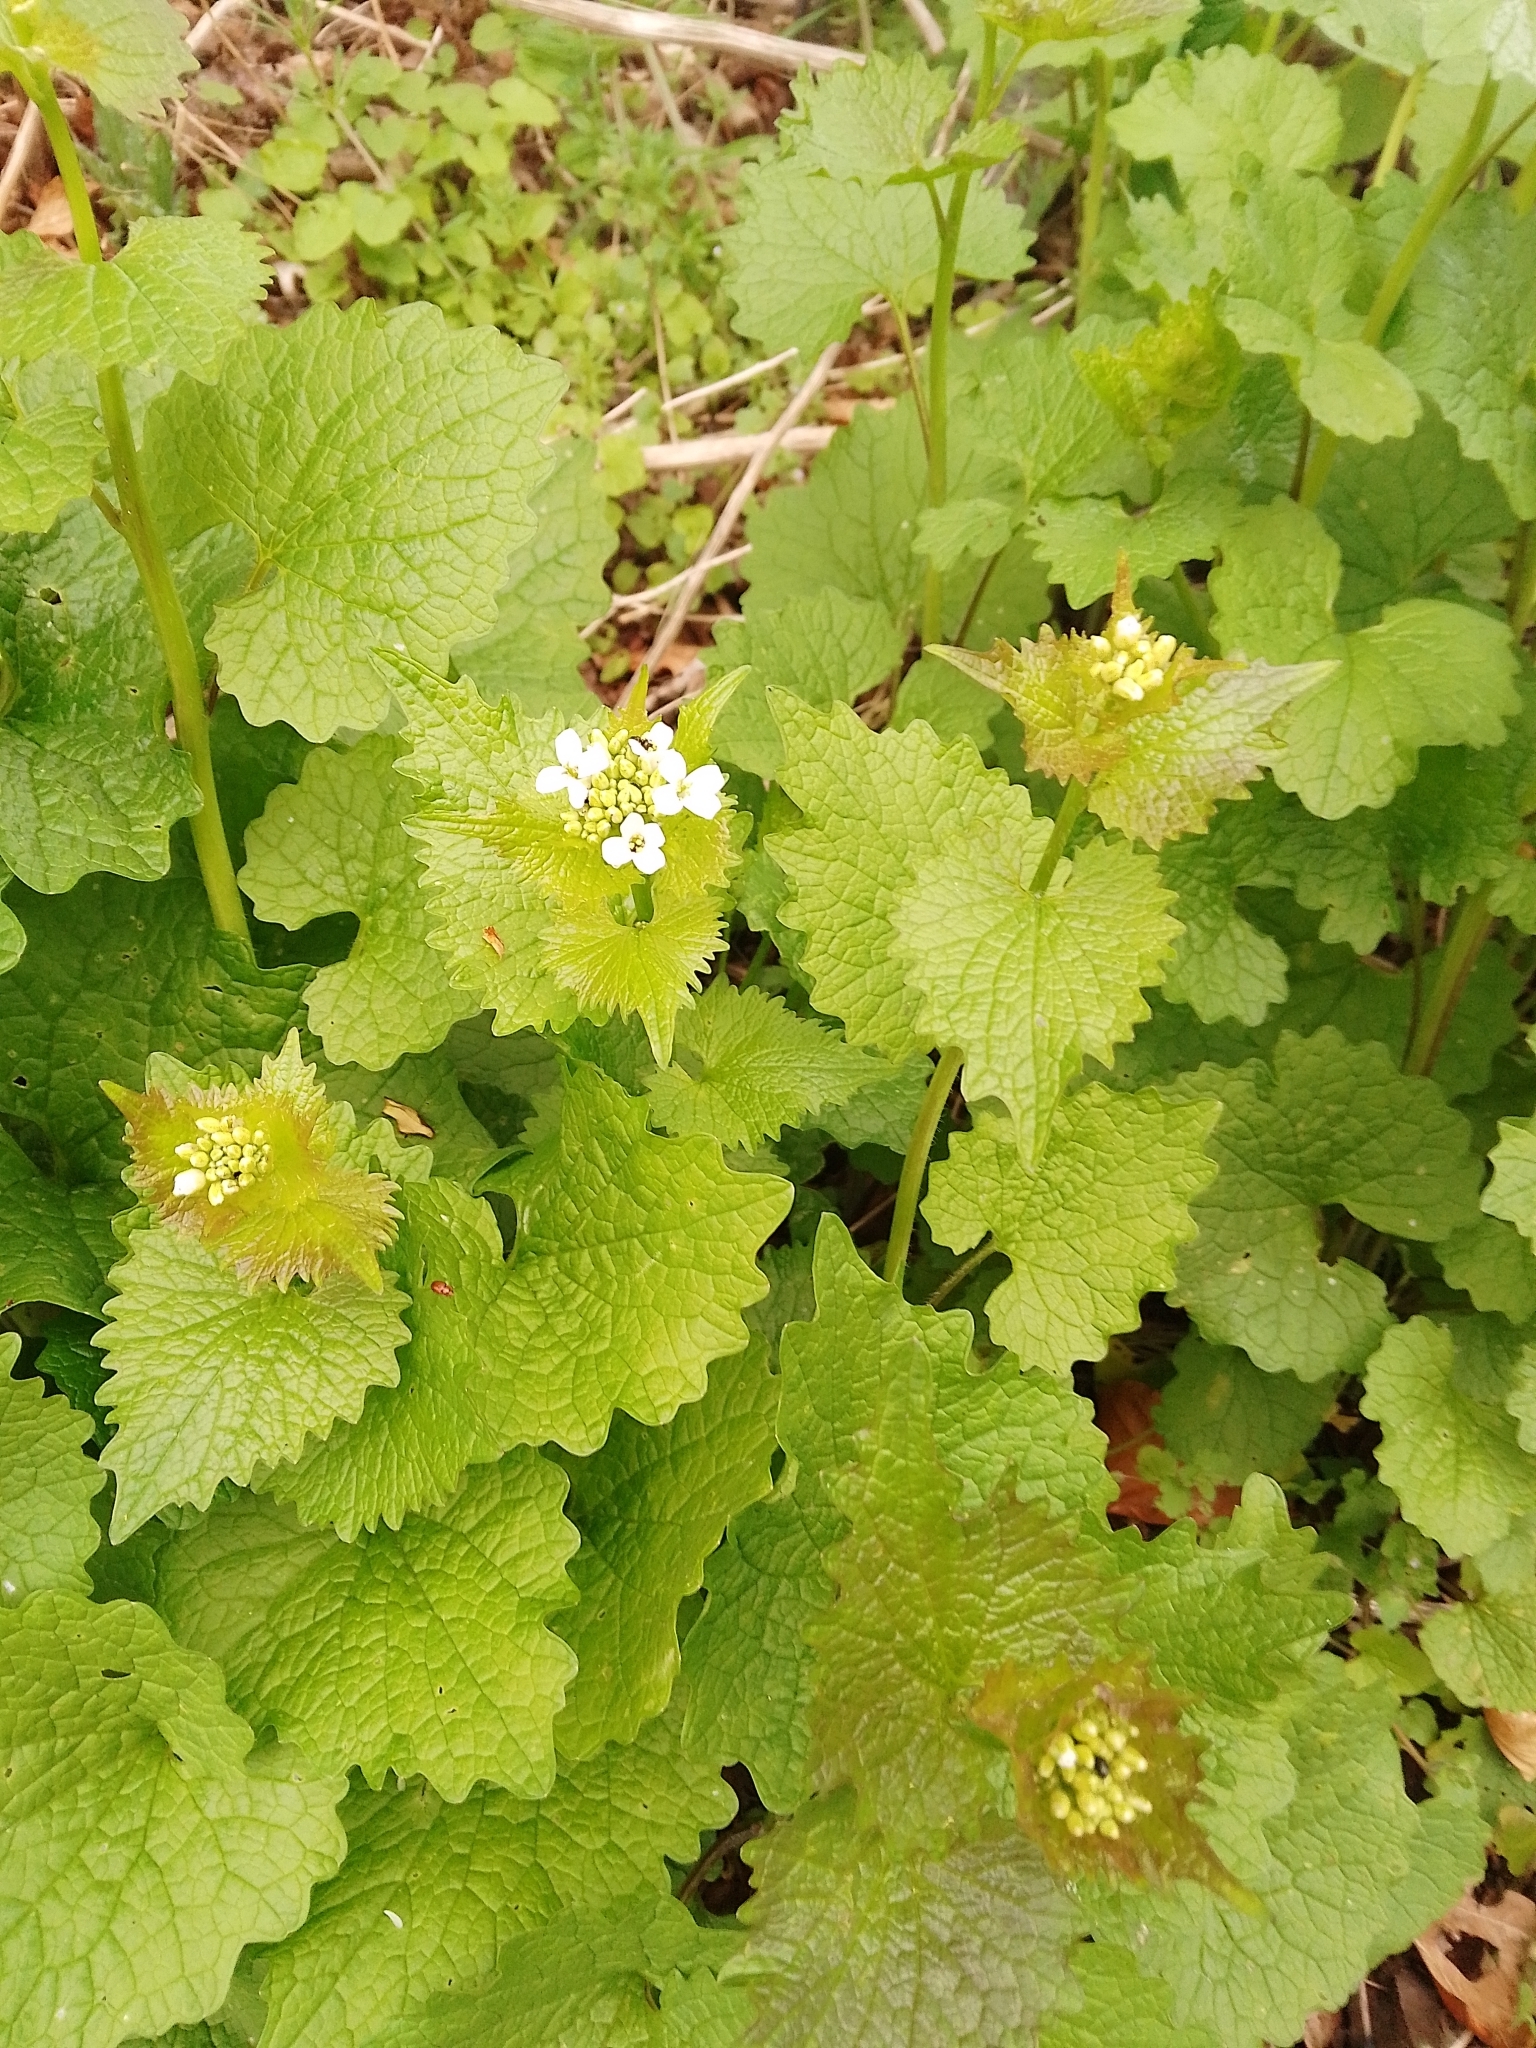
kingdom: Plantae
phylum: Tracheophyta
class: Magnoliopsida
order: Brassicales
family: Brassicaceae
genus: Alliaria
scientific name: Alliaria petiolata
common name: Garlic mustard
